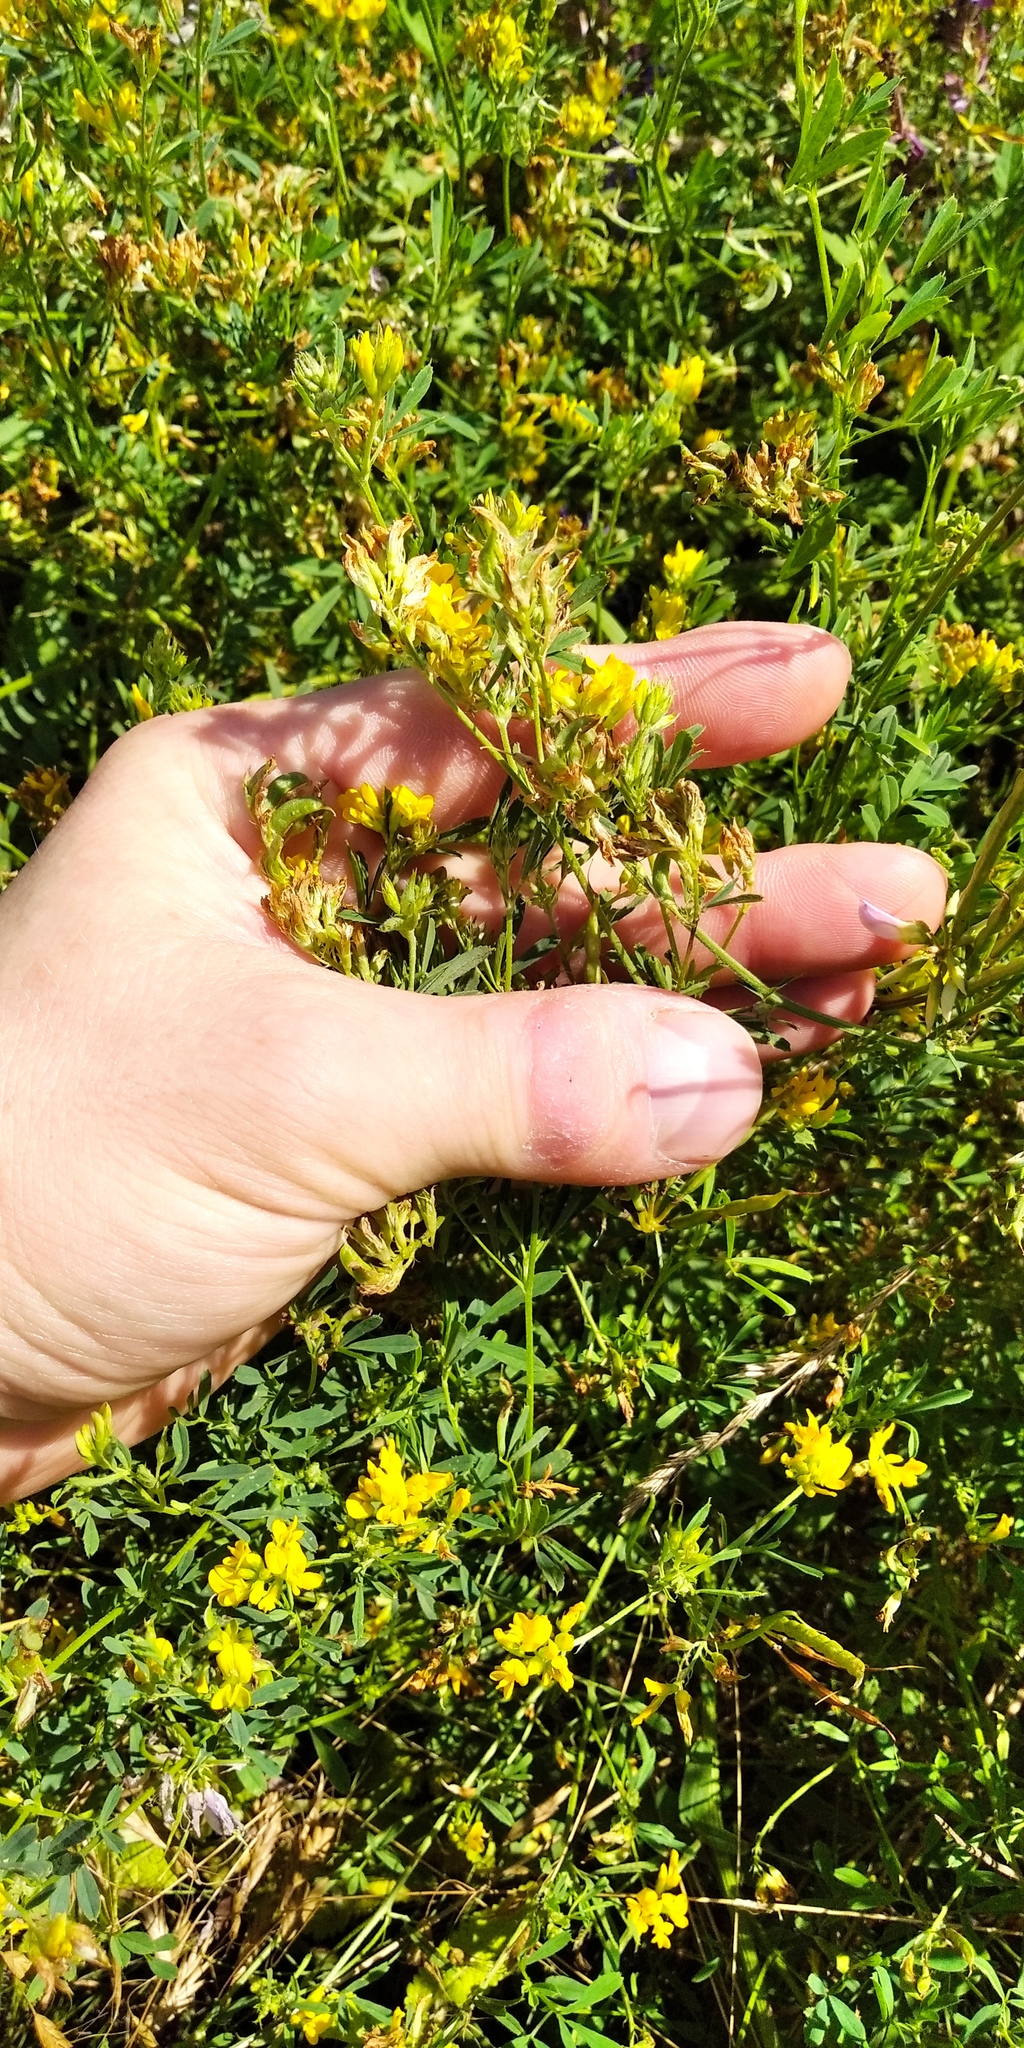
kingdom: Plantae
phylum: Tracheophyta
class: Magnoliopsida
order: Fabales
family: Fabaceae
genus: Medicago
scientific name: Medicago falcata
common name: Sickle medick
